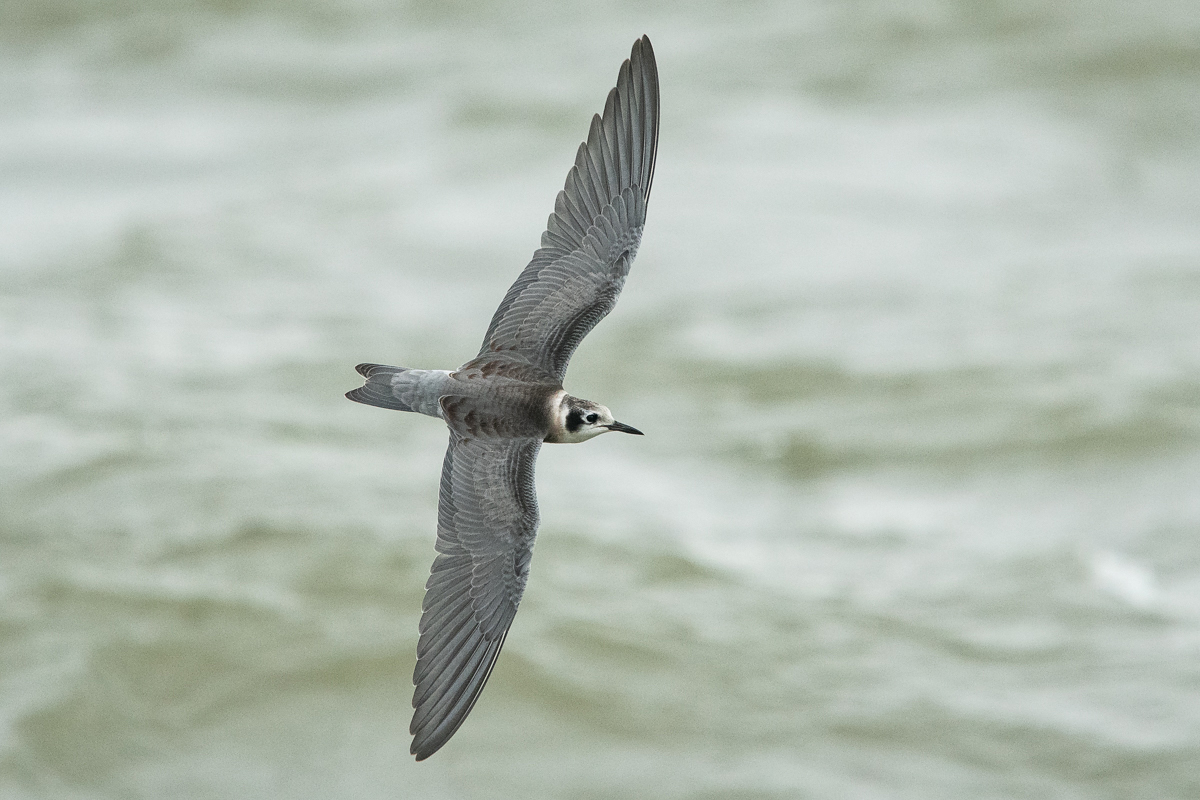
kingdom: Animalia
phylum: Chordata
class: Aves
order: Charadriiformes
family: Laridae
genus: Chlidonias
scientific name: Chlidonias niger
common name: Black tern
